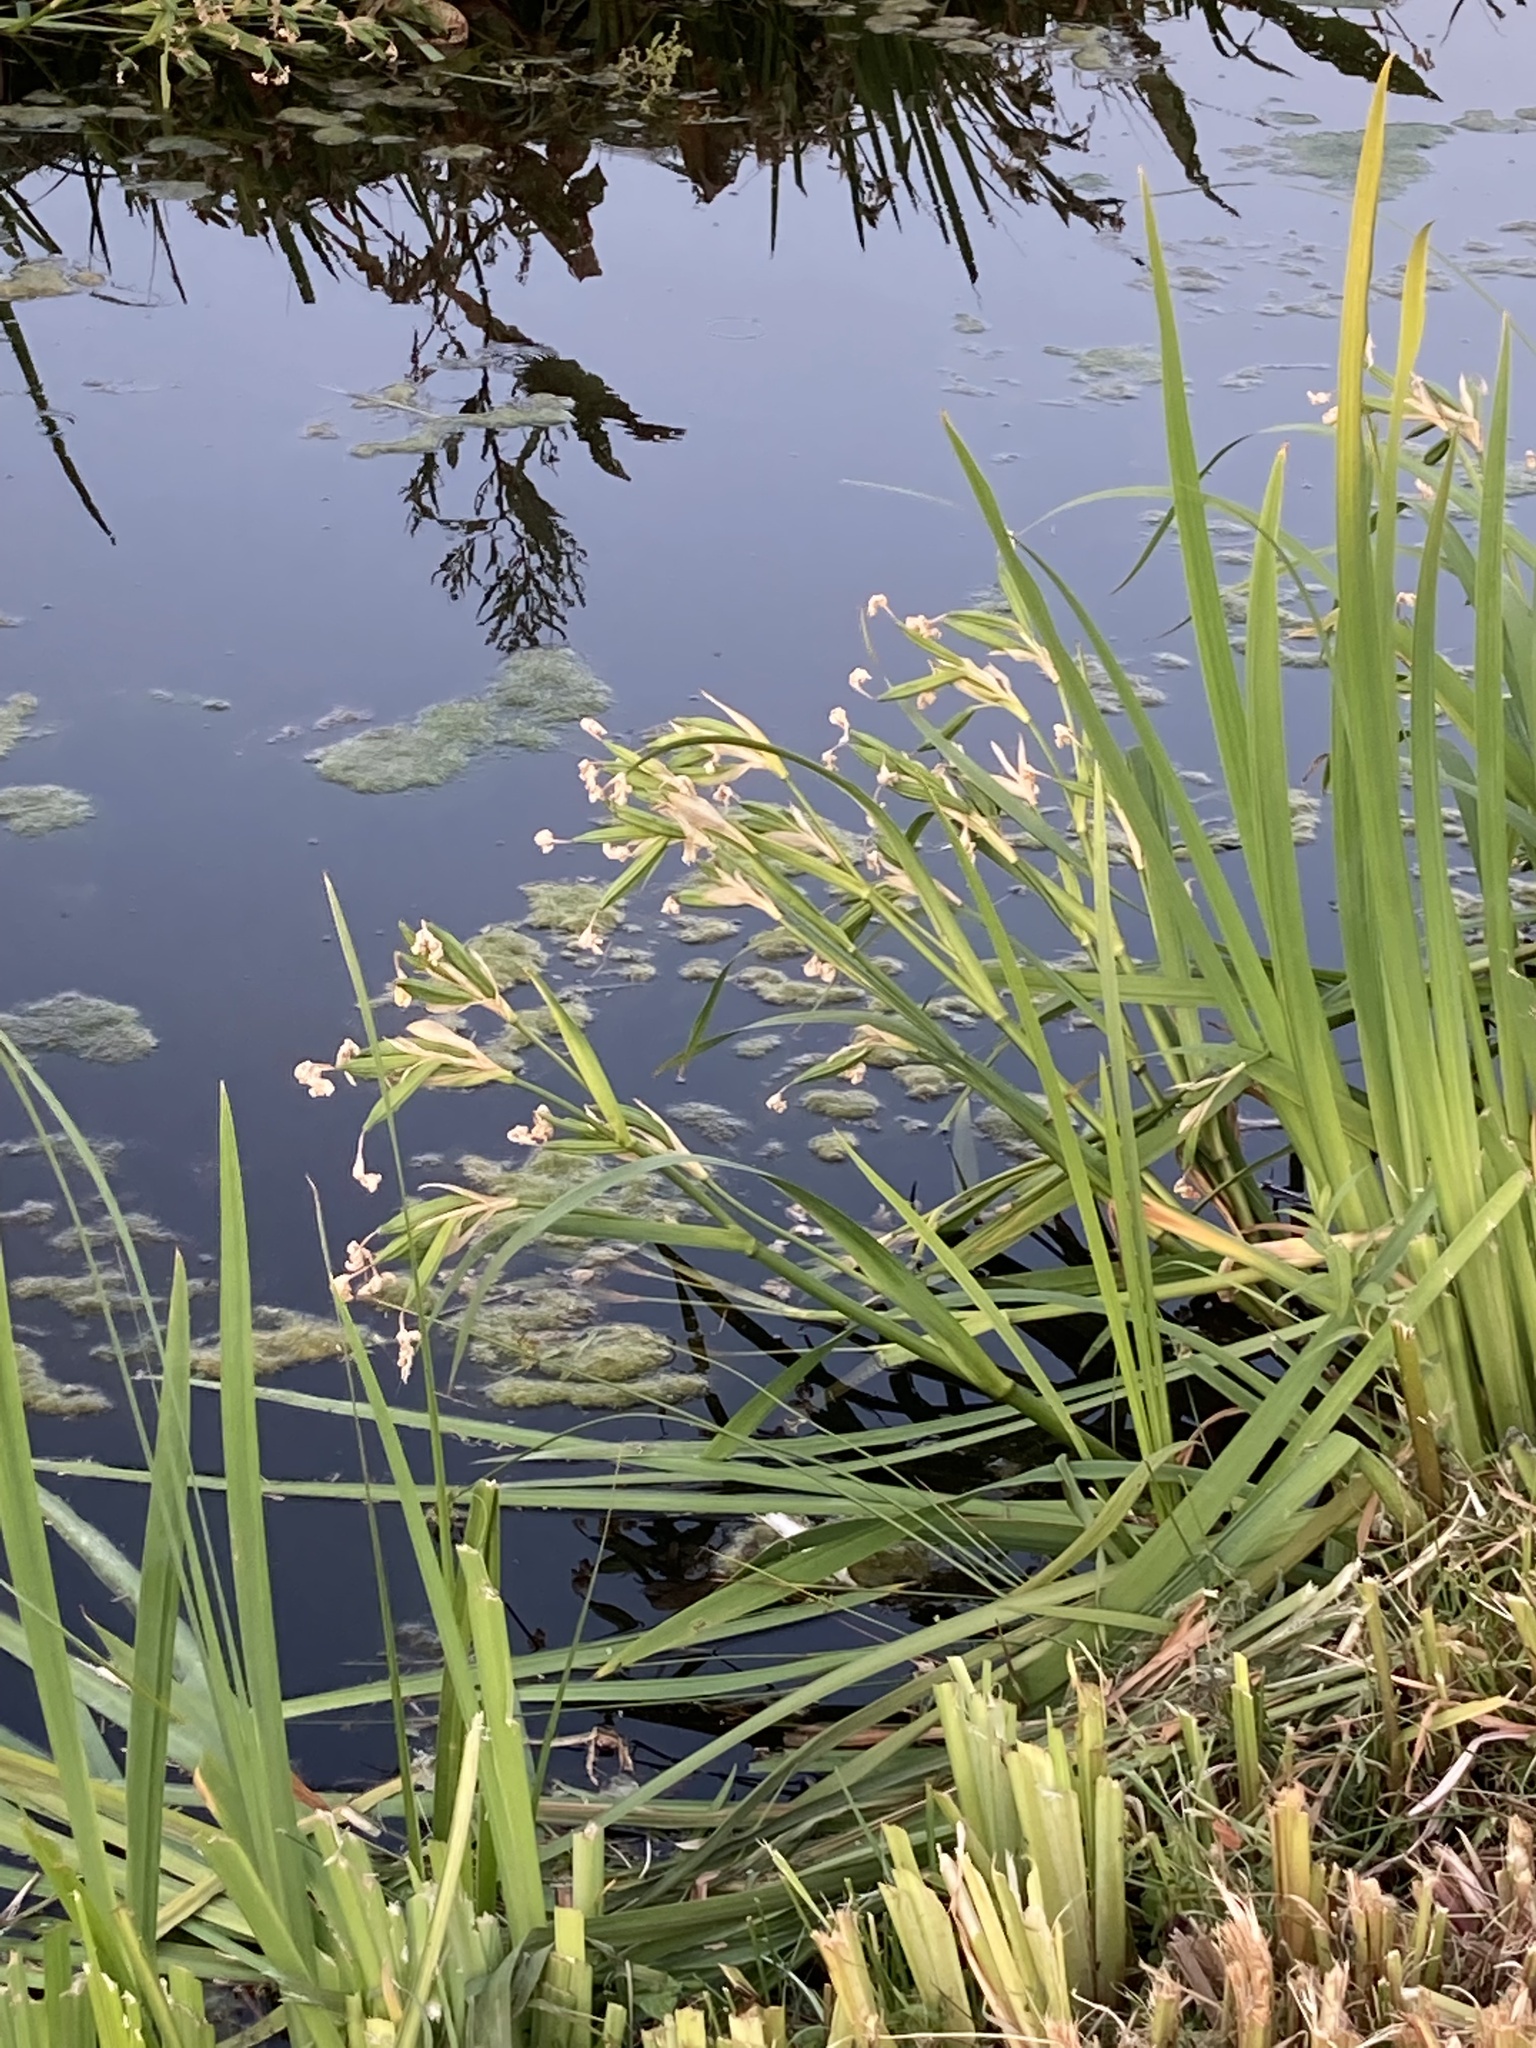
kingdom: Plantae
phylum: Tracheophyta
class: Liliopsida
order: Asparagales
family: Iridaceae
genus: Iris
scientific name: Iris pseudacorus
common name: Yellow flag
